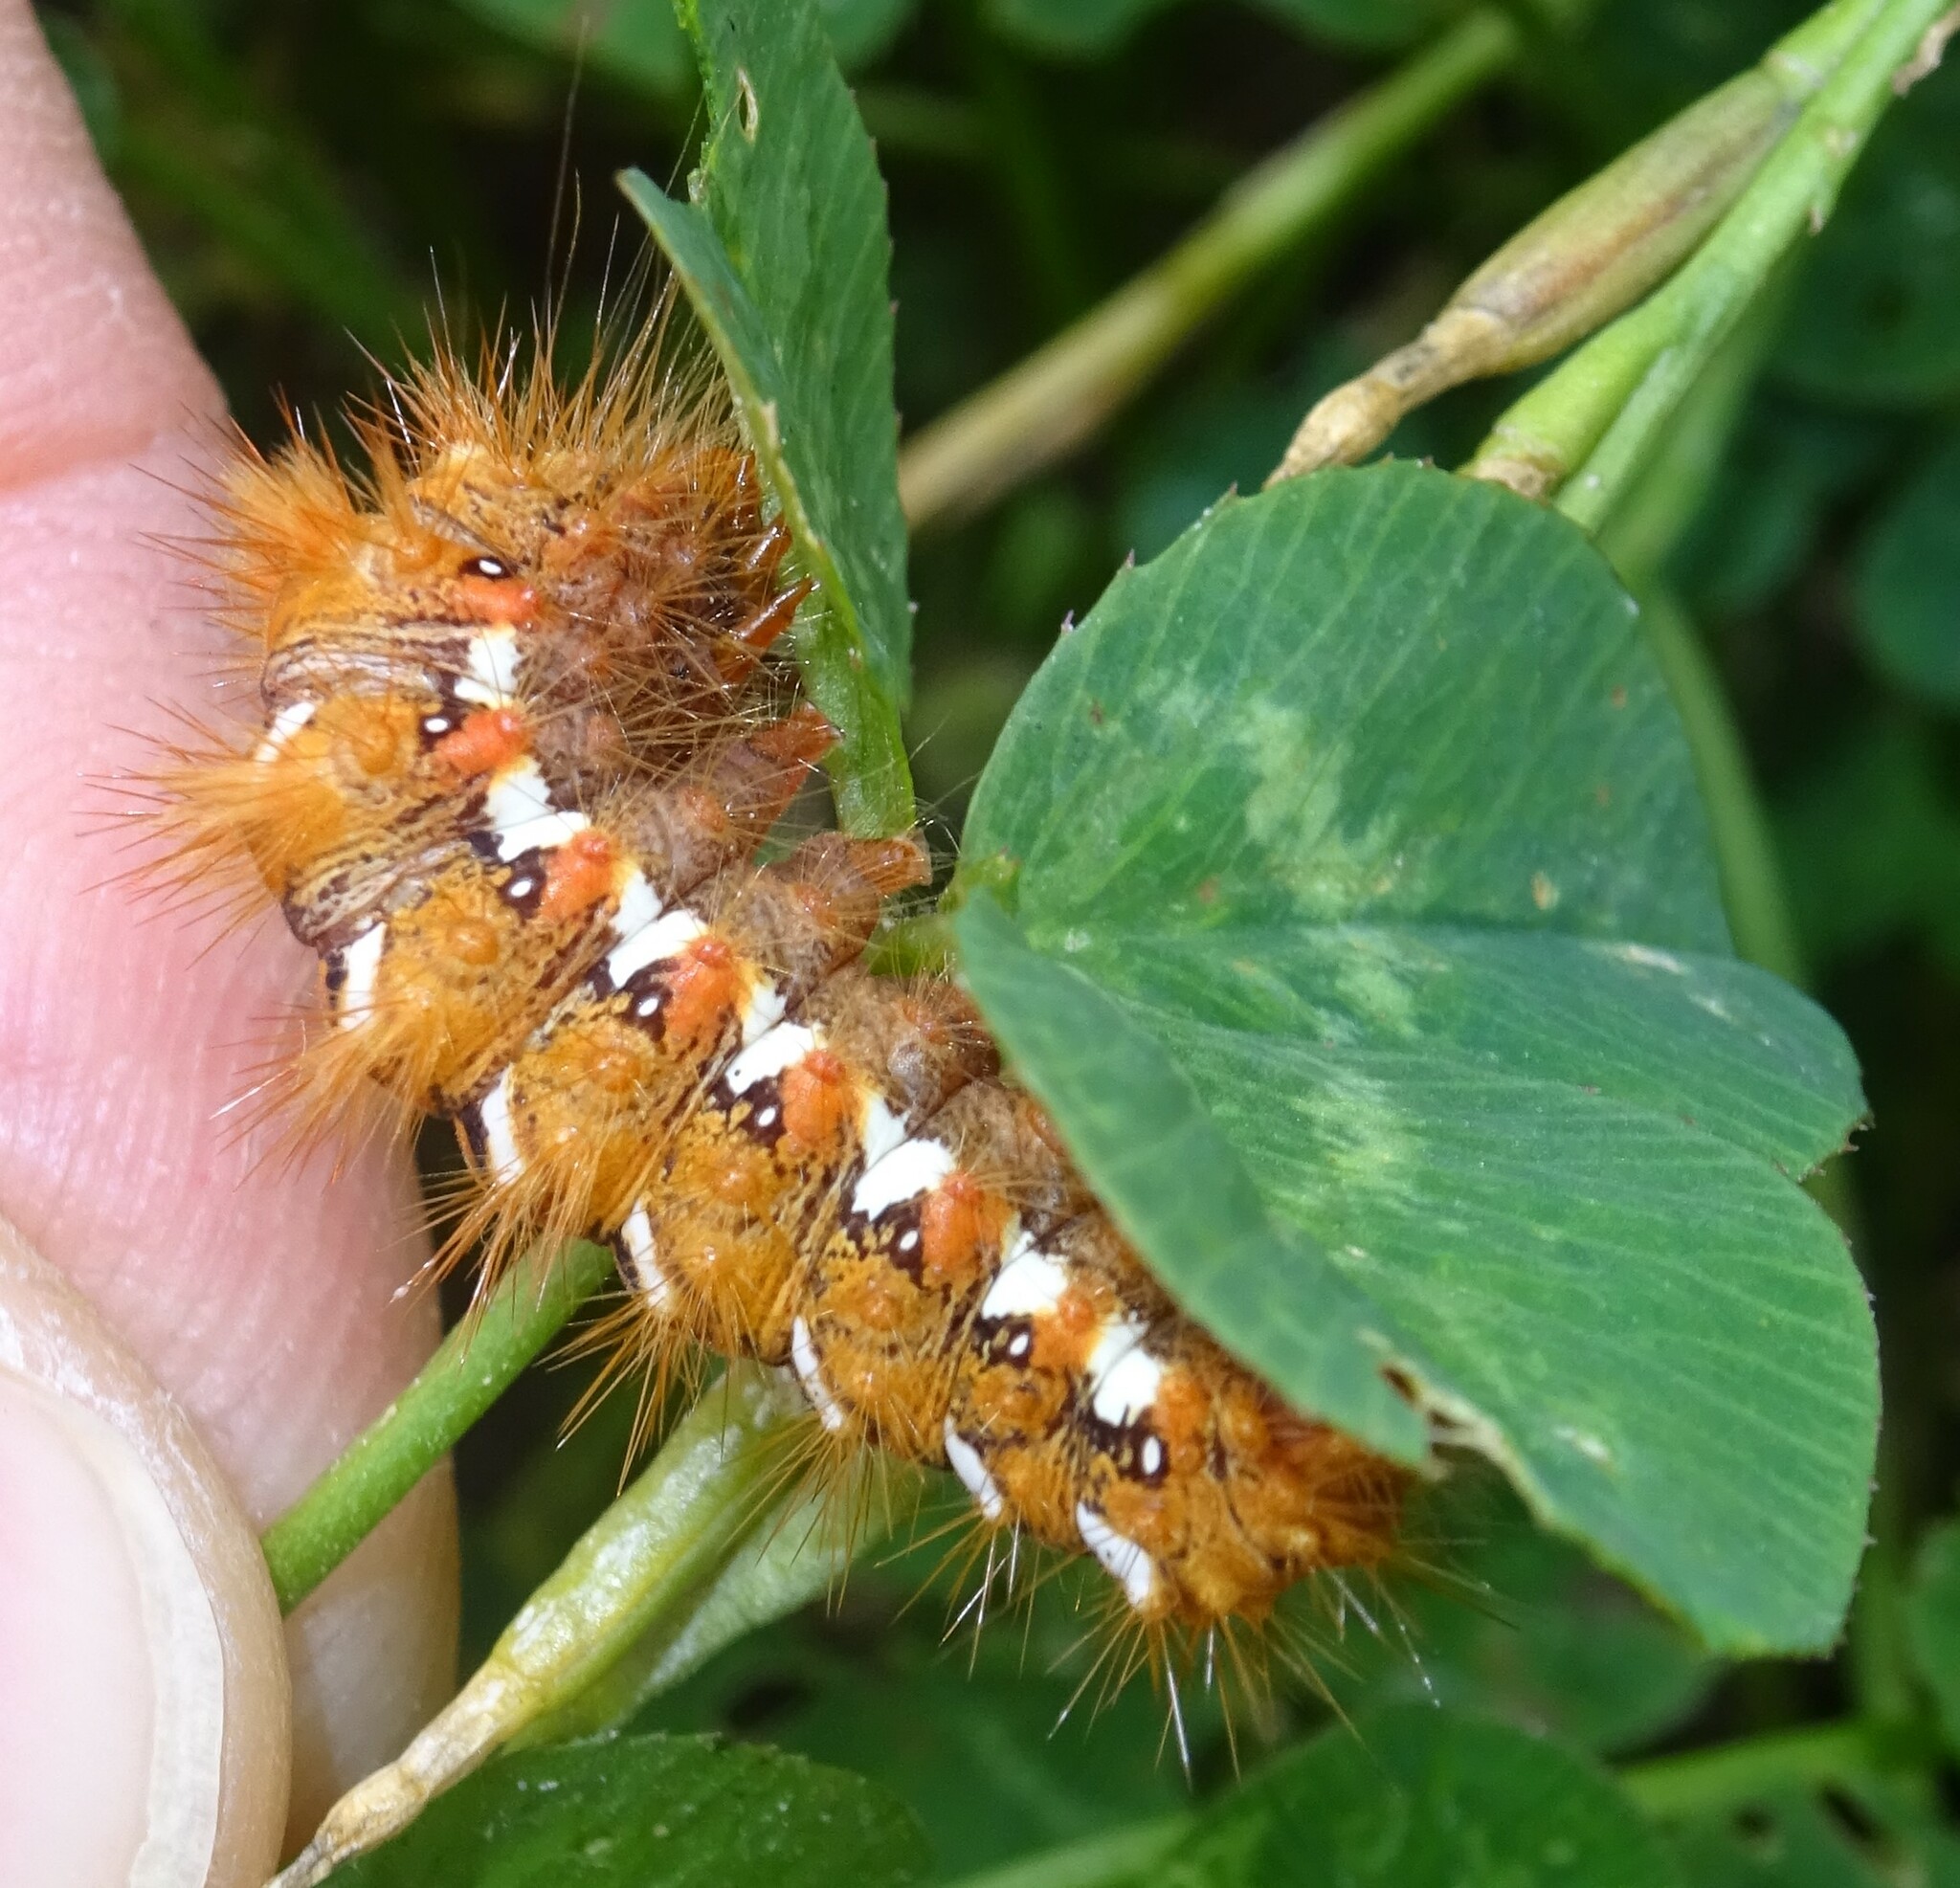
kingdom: Animalia
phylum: Arthropoda
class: Insecta
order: Lepidoptera
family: Noctuidae
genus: Acronicta
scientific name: Acronicta rumicis
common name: Knot grass
